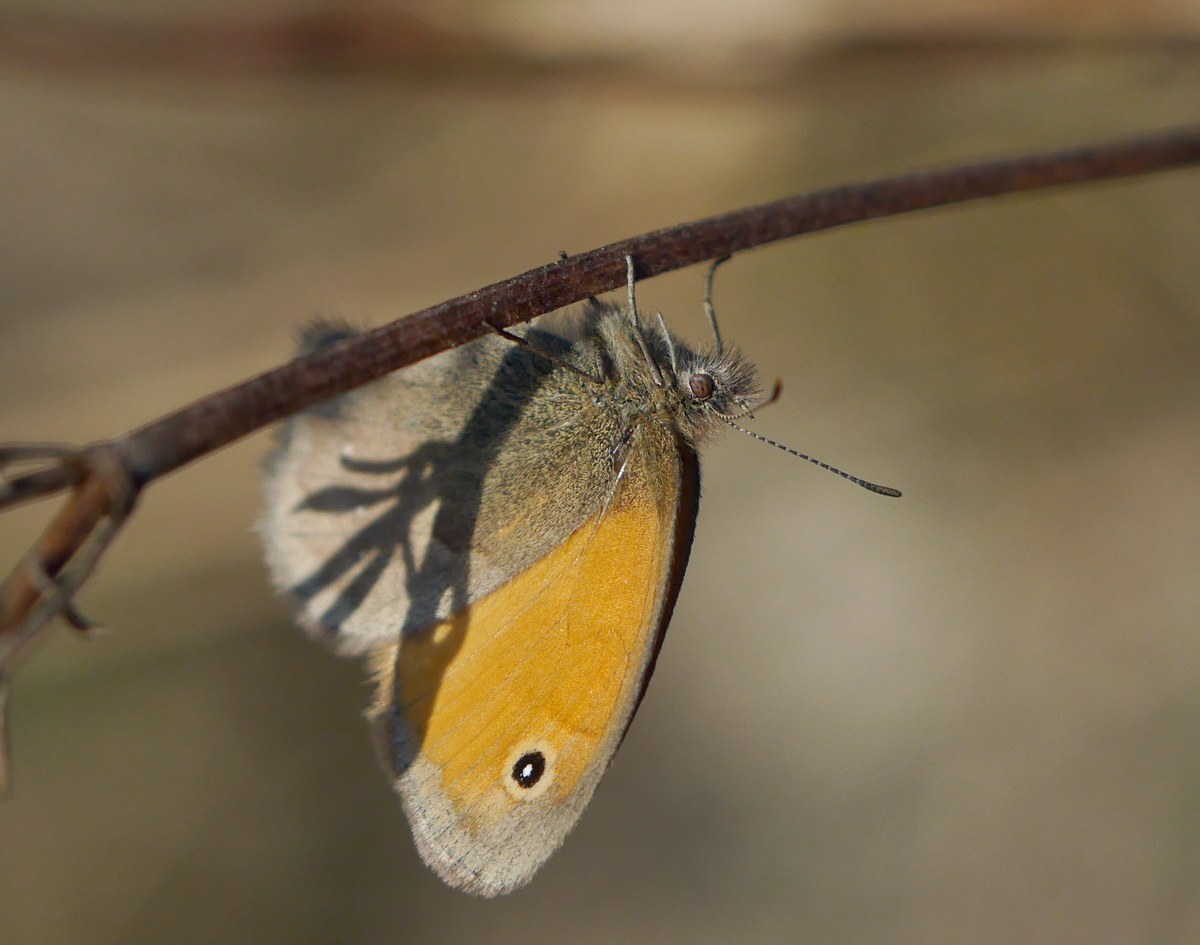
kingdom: Animalia
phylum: Arthropoda
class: Insecta
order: Lepidoptera
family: Nymphalidae
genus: Coenonympha
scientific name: Coenonympha pamphilus
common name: Small heath
